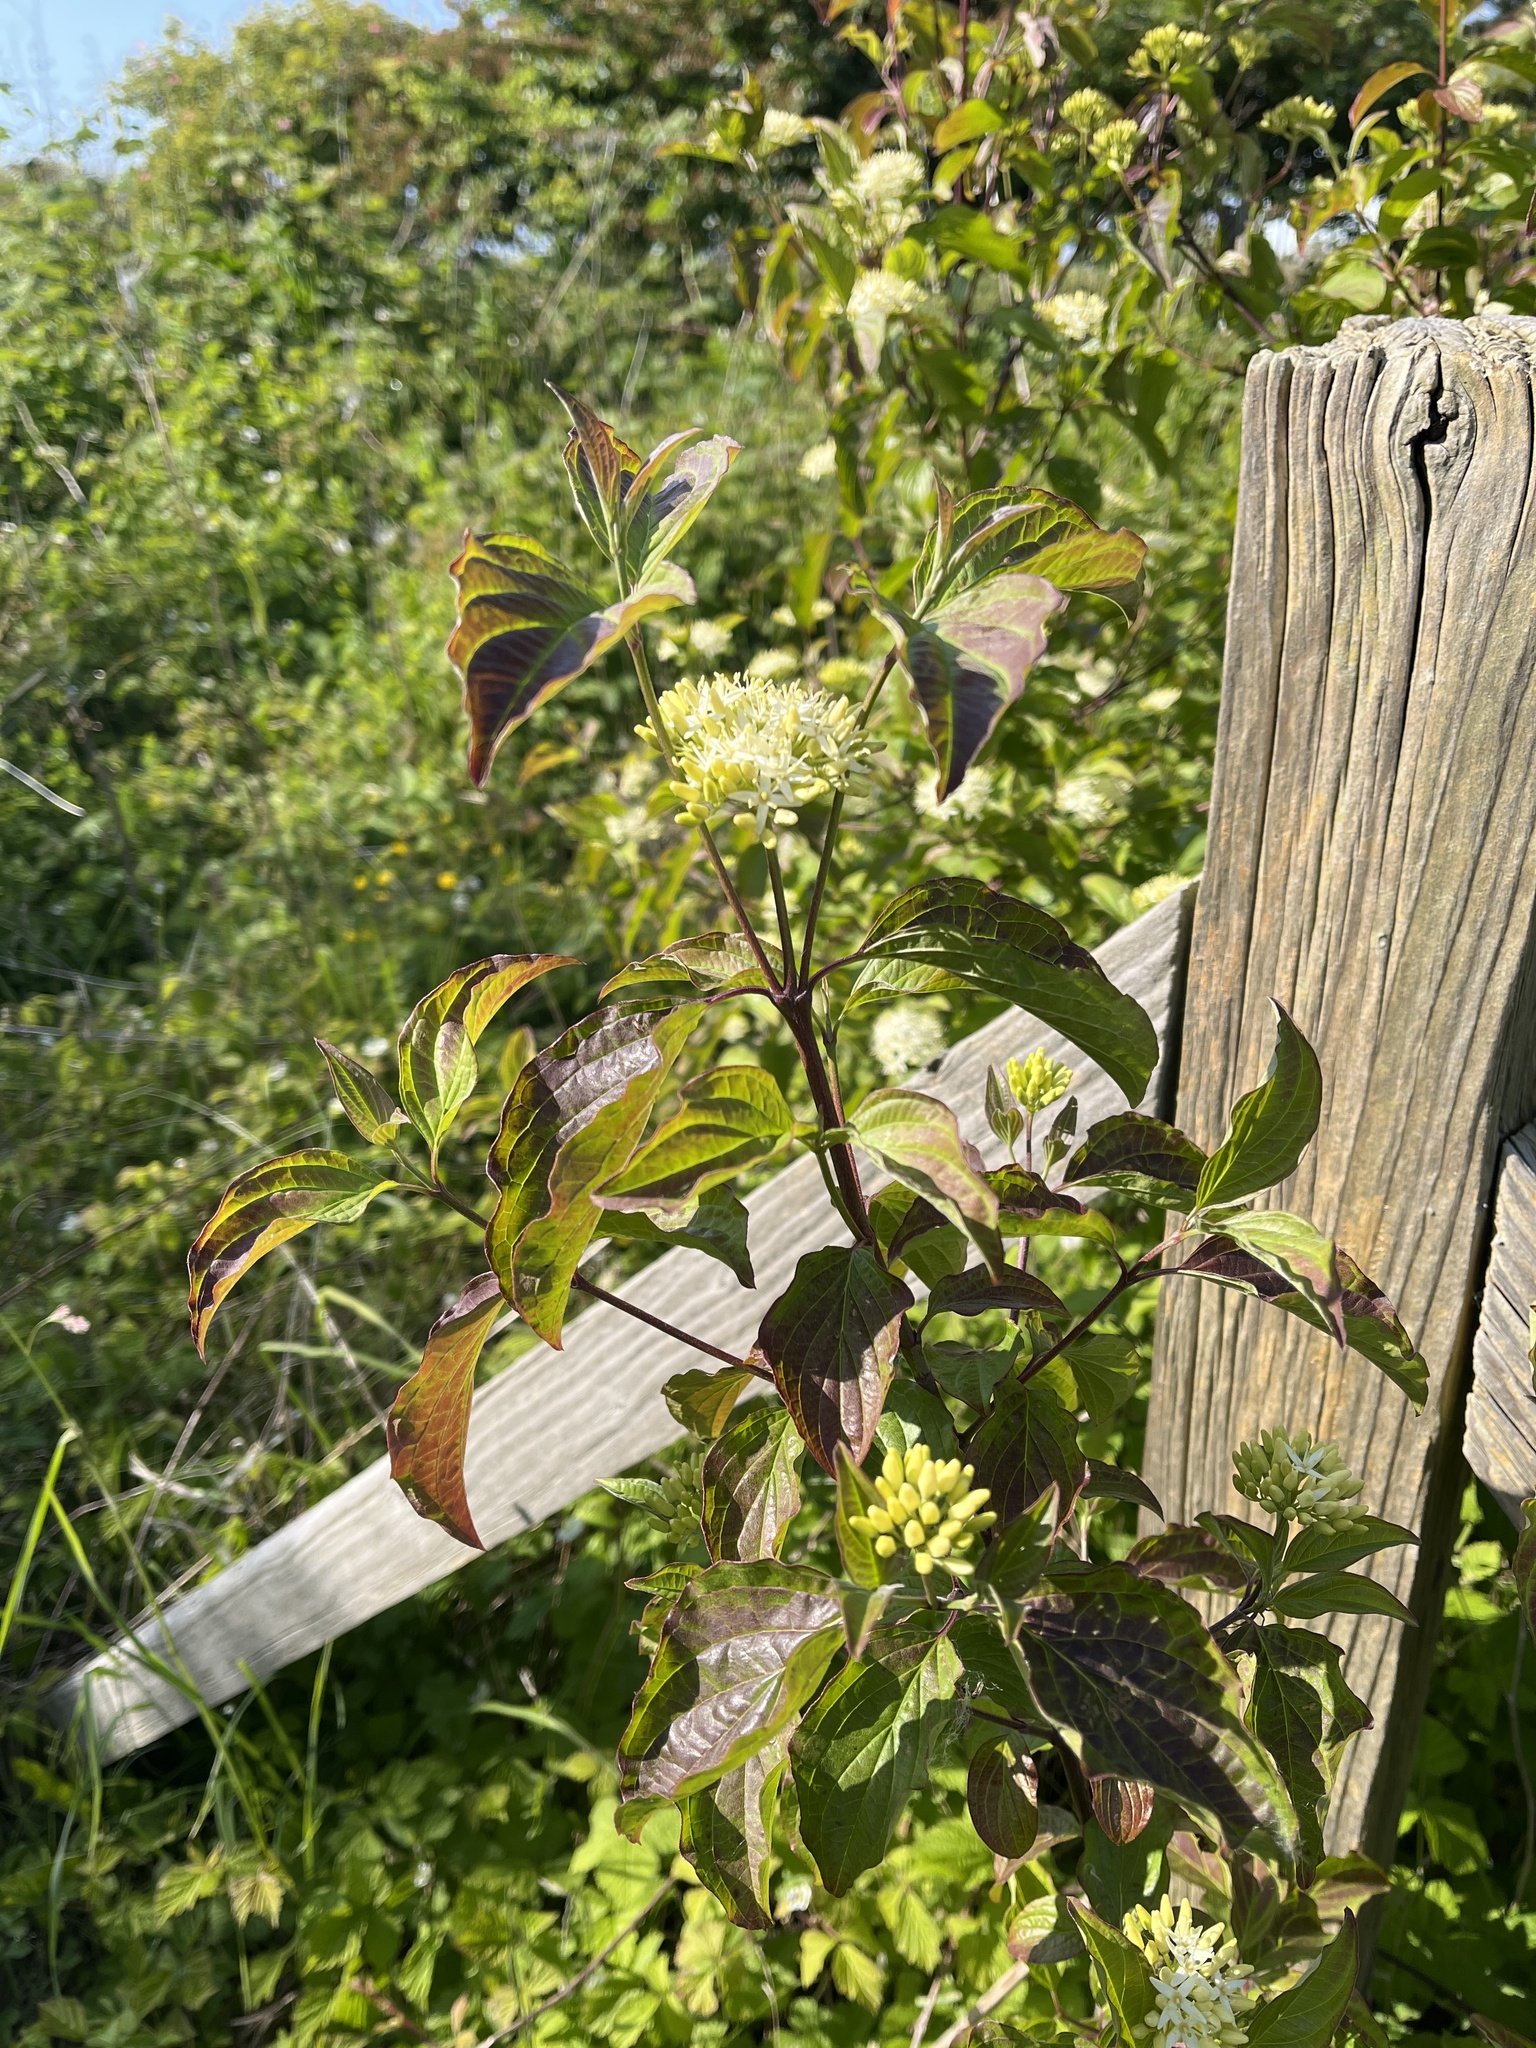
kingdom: Plantae
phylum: Tracheophyta
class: Magnoliopsida
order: Cornales
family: Cornaceae
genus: Cornus
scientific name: Cornus sanguinea
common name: Dogwood
